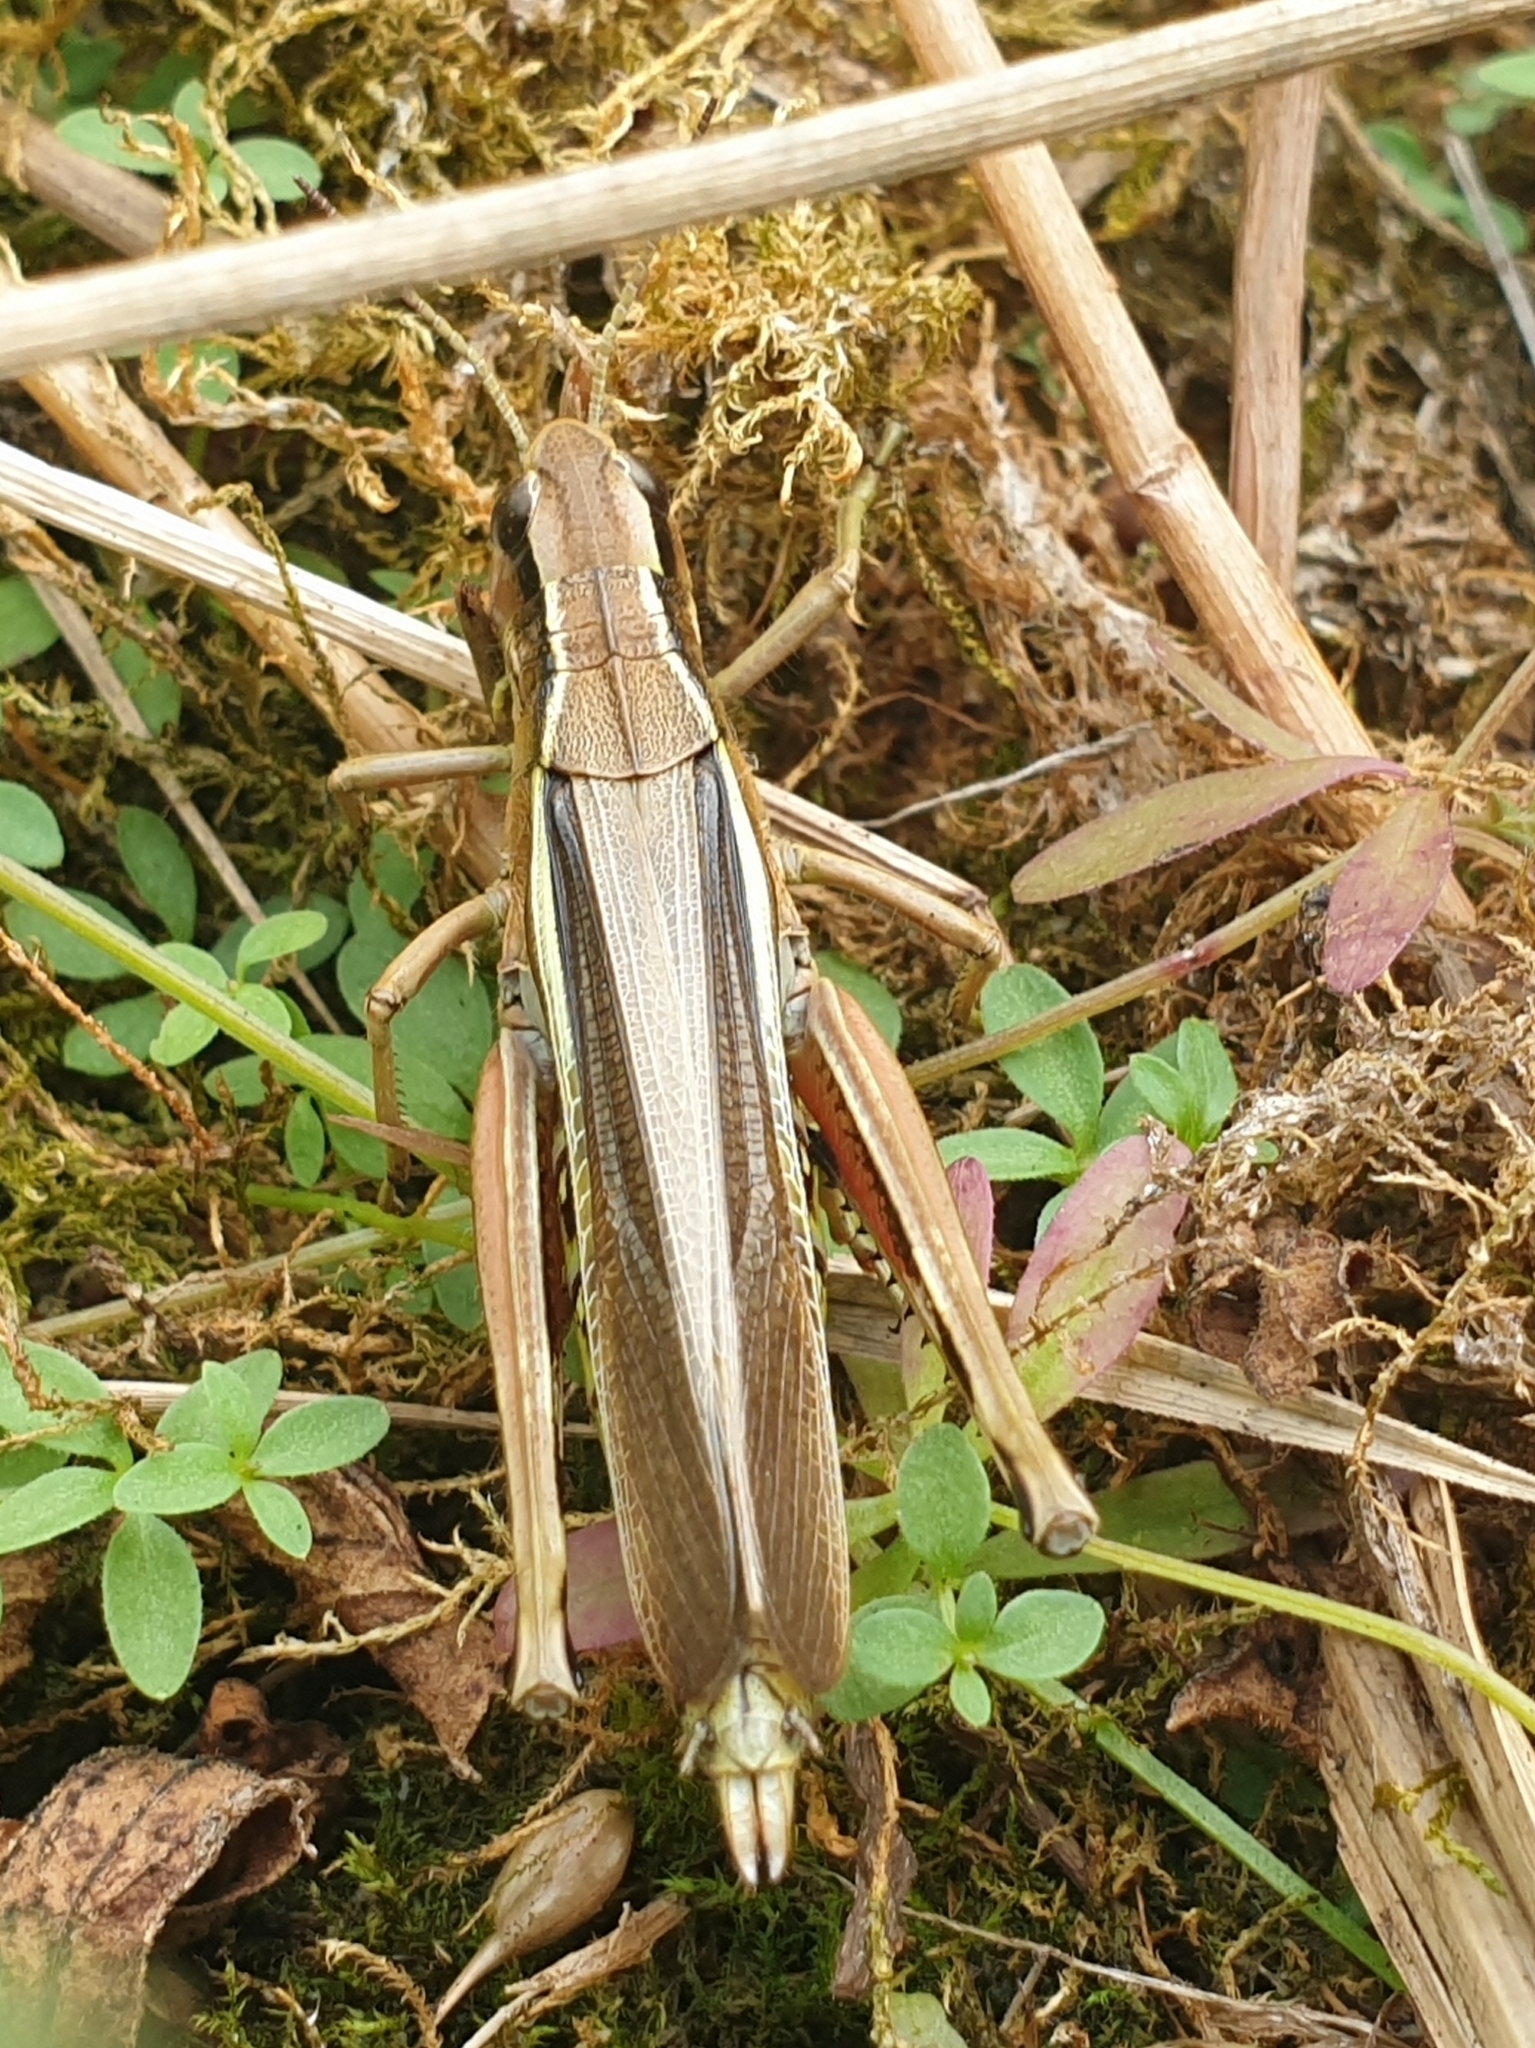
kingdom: Animalia
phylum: Arthropoda
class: Insecta
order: Orthoptera
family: Acrididae
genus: Stethophyma
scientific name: Stethophyma grossum
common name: Large marsh grasshopper
